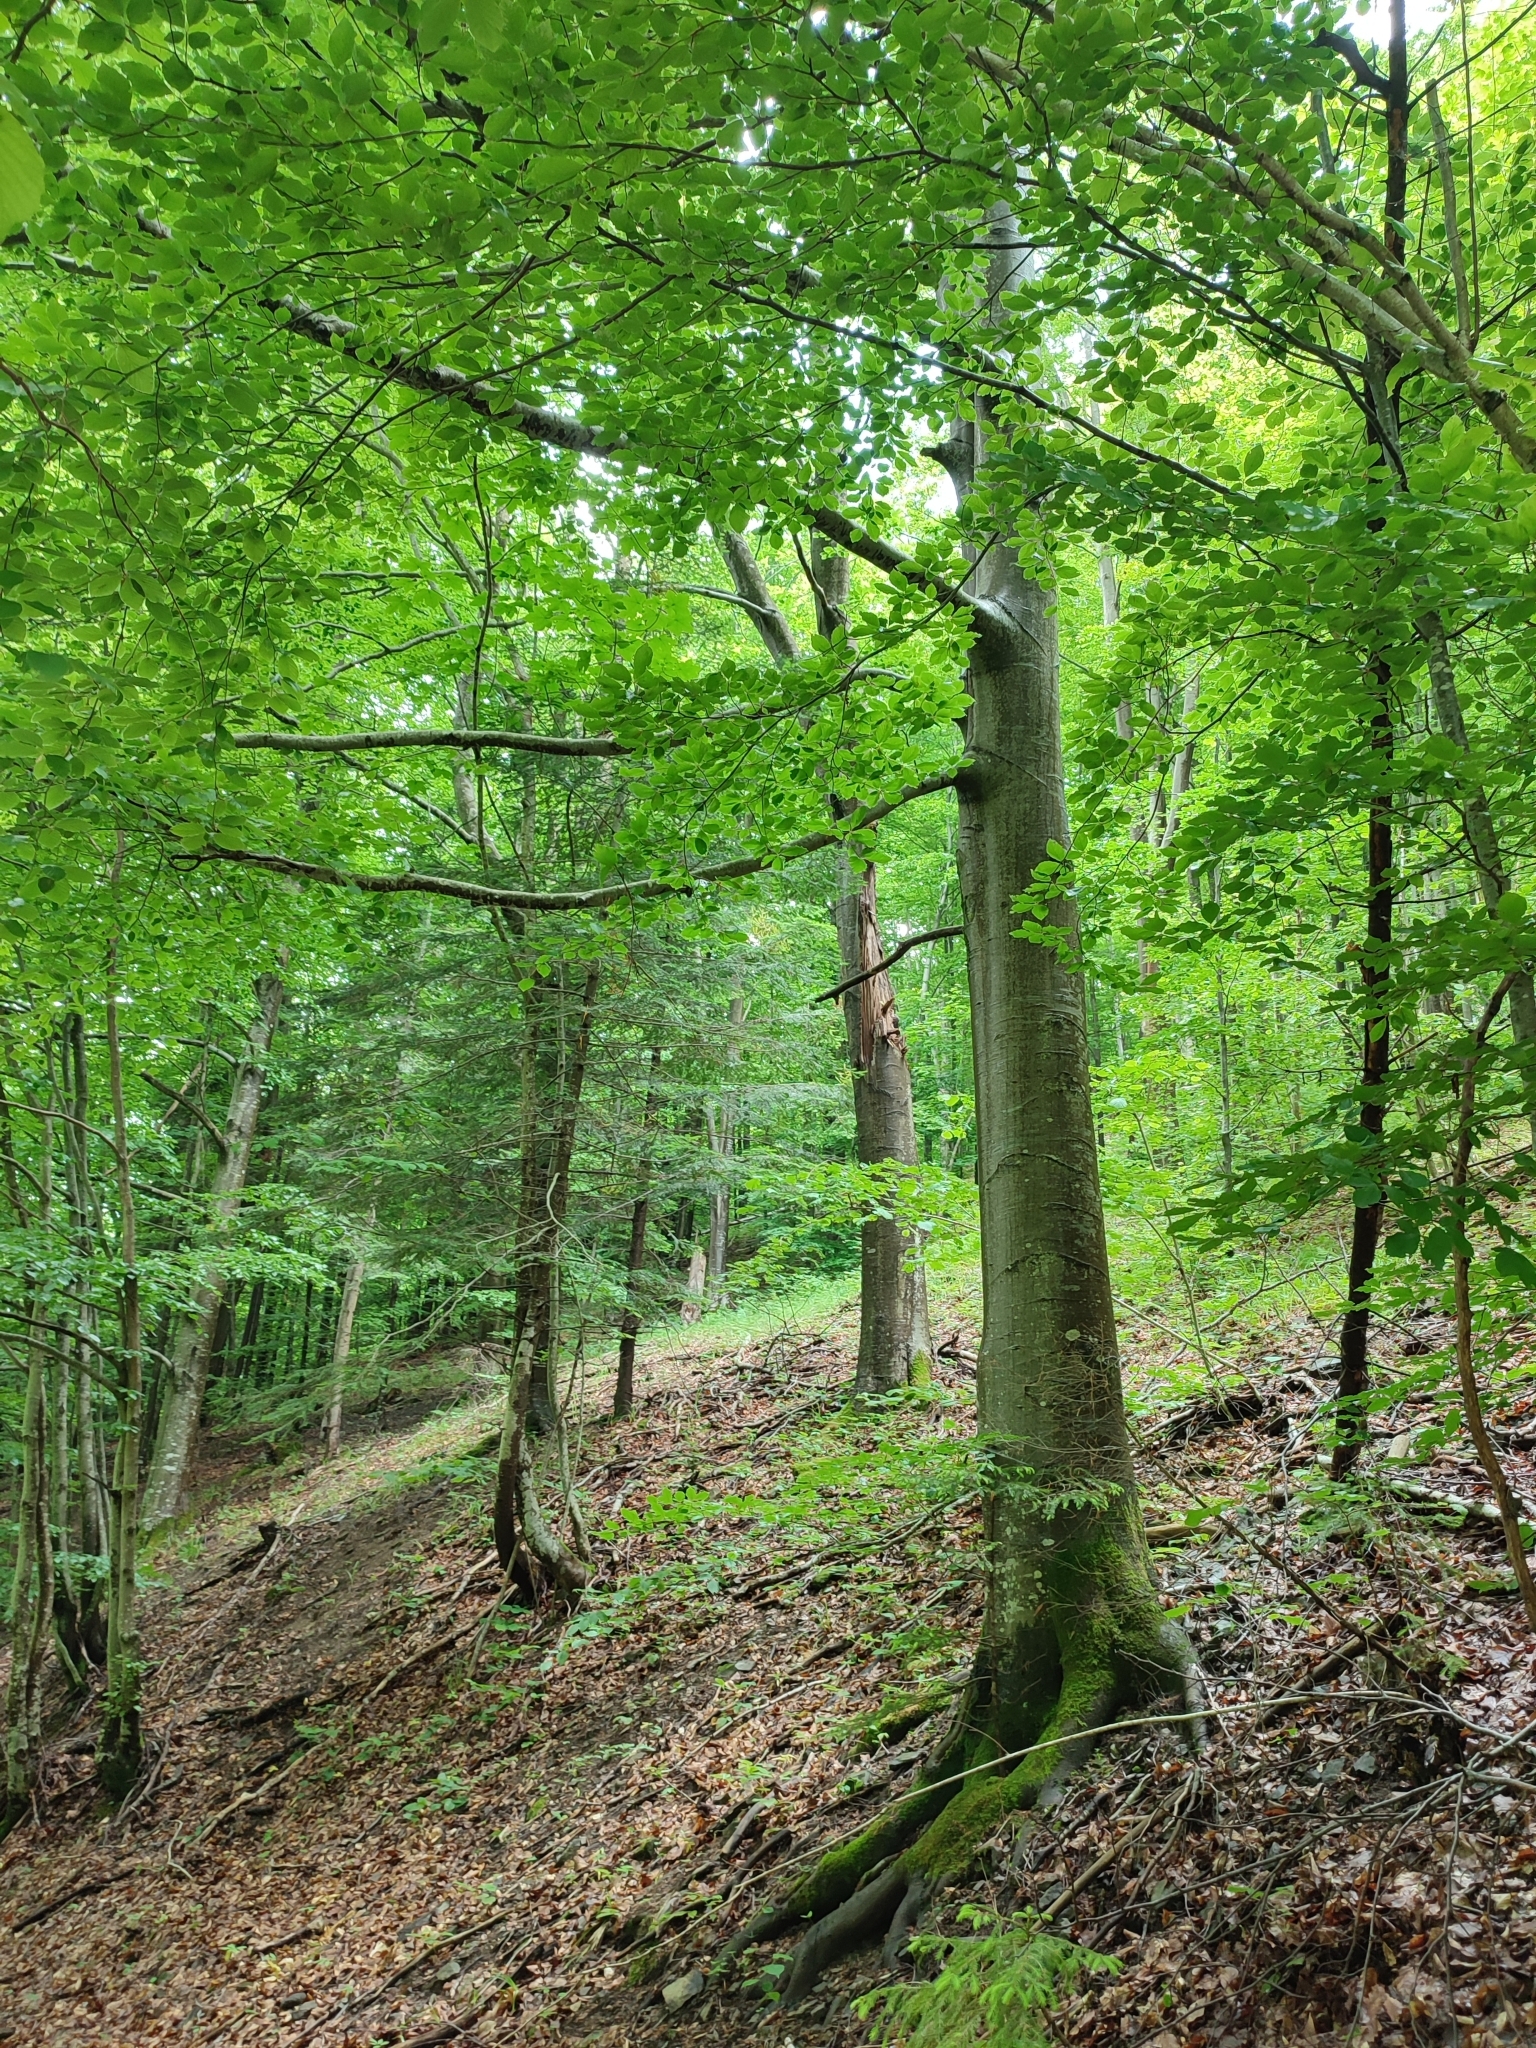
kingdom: Plantae
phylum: Tracheophyta
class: Magnoliopsida
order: Fagales
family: Fagaceae
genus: Fagus
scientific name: Fagus sylvatica
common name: Beech
